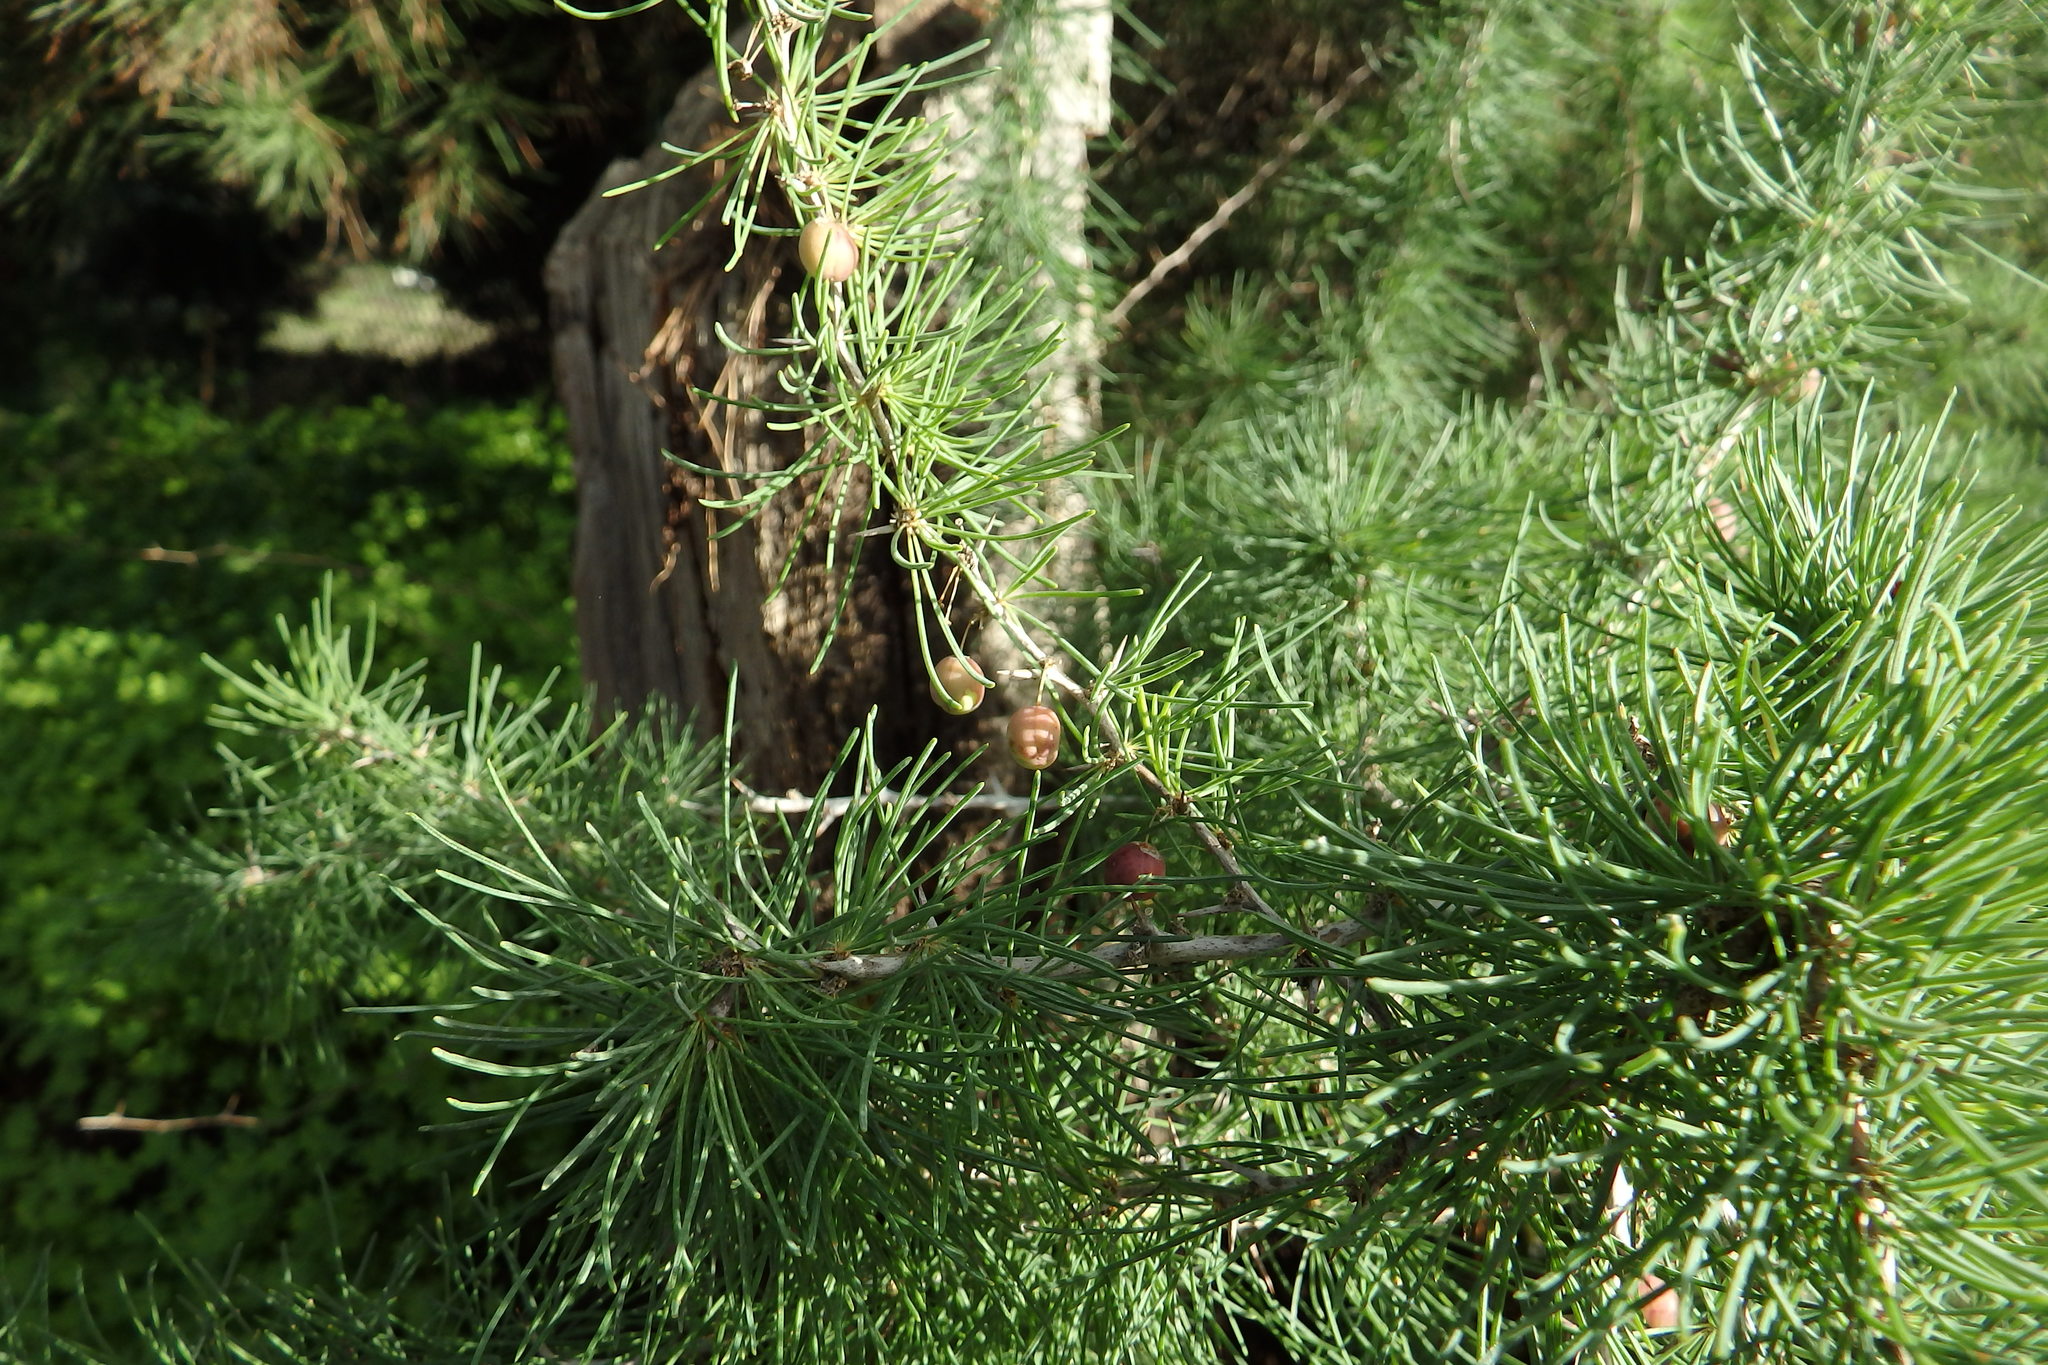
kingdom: Plantae
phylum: Tracheophyta
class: Liliopsida
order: Asparagales
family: Asparagaceae
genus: Asparagus
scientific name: Asparagus albus
